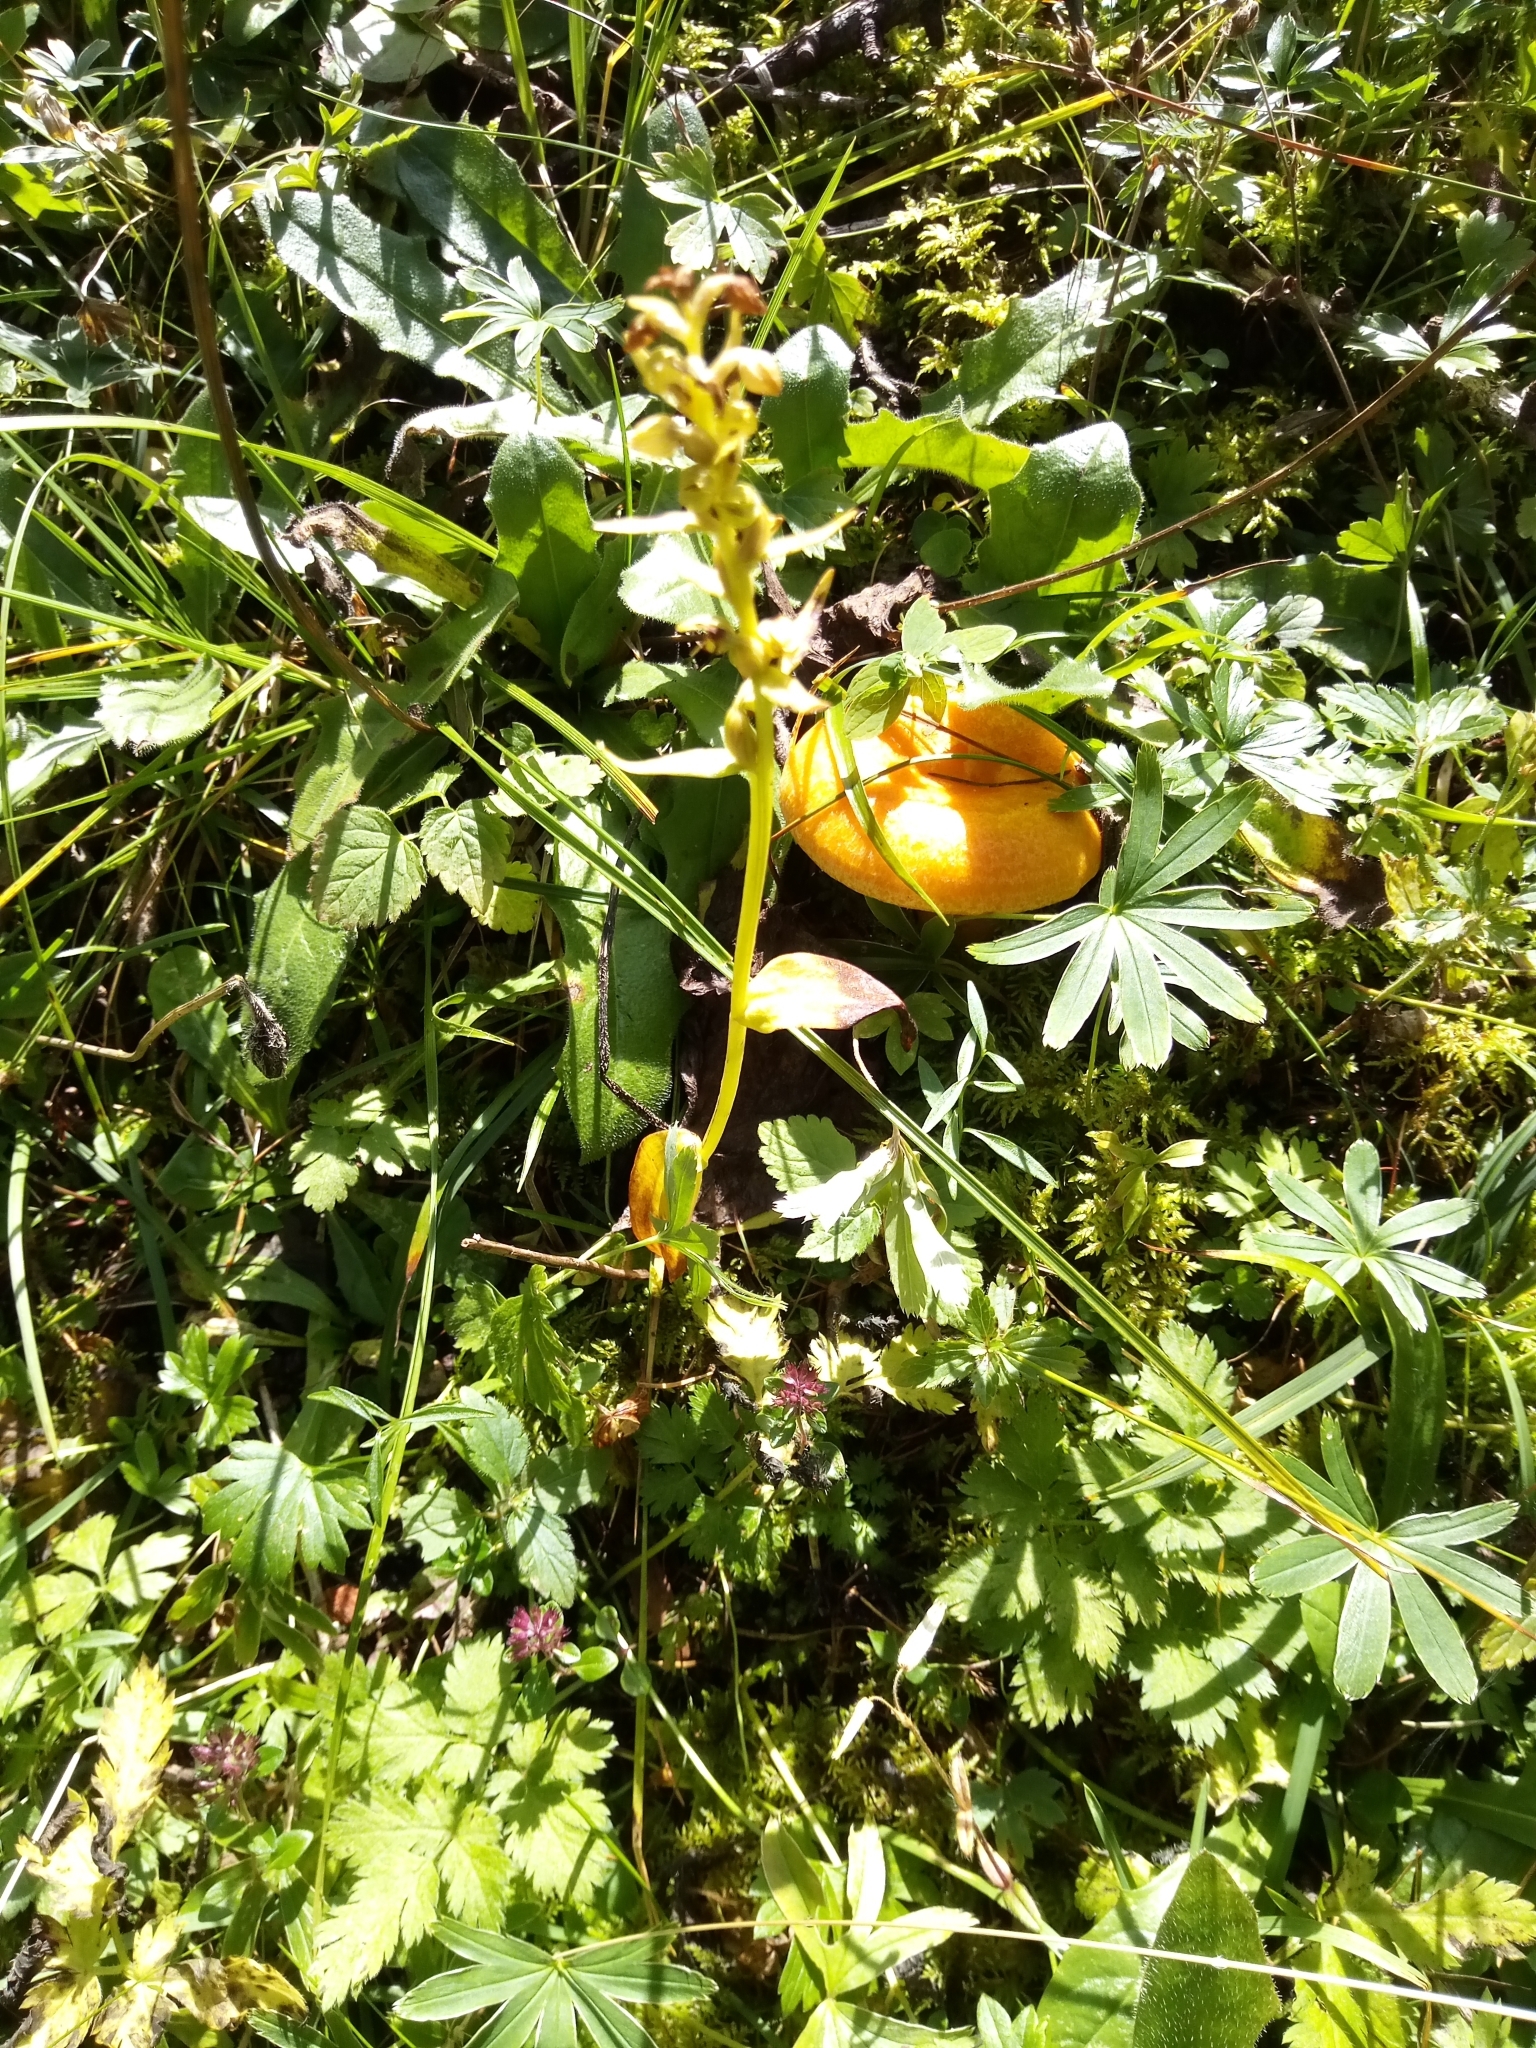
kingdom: Plantae
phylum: Tracheophyta
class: Liliopsida
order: Asparagales
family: Orchidaceae
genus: Dactylorhiza
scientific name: Dactylorhiza viridis
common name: Longbract frog orchid
